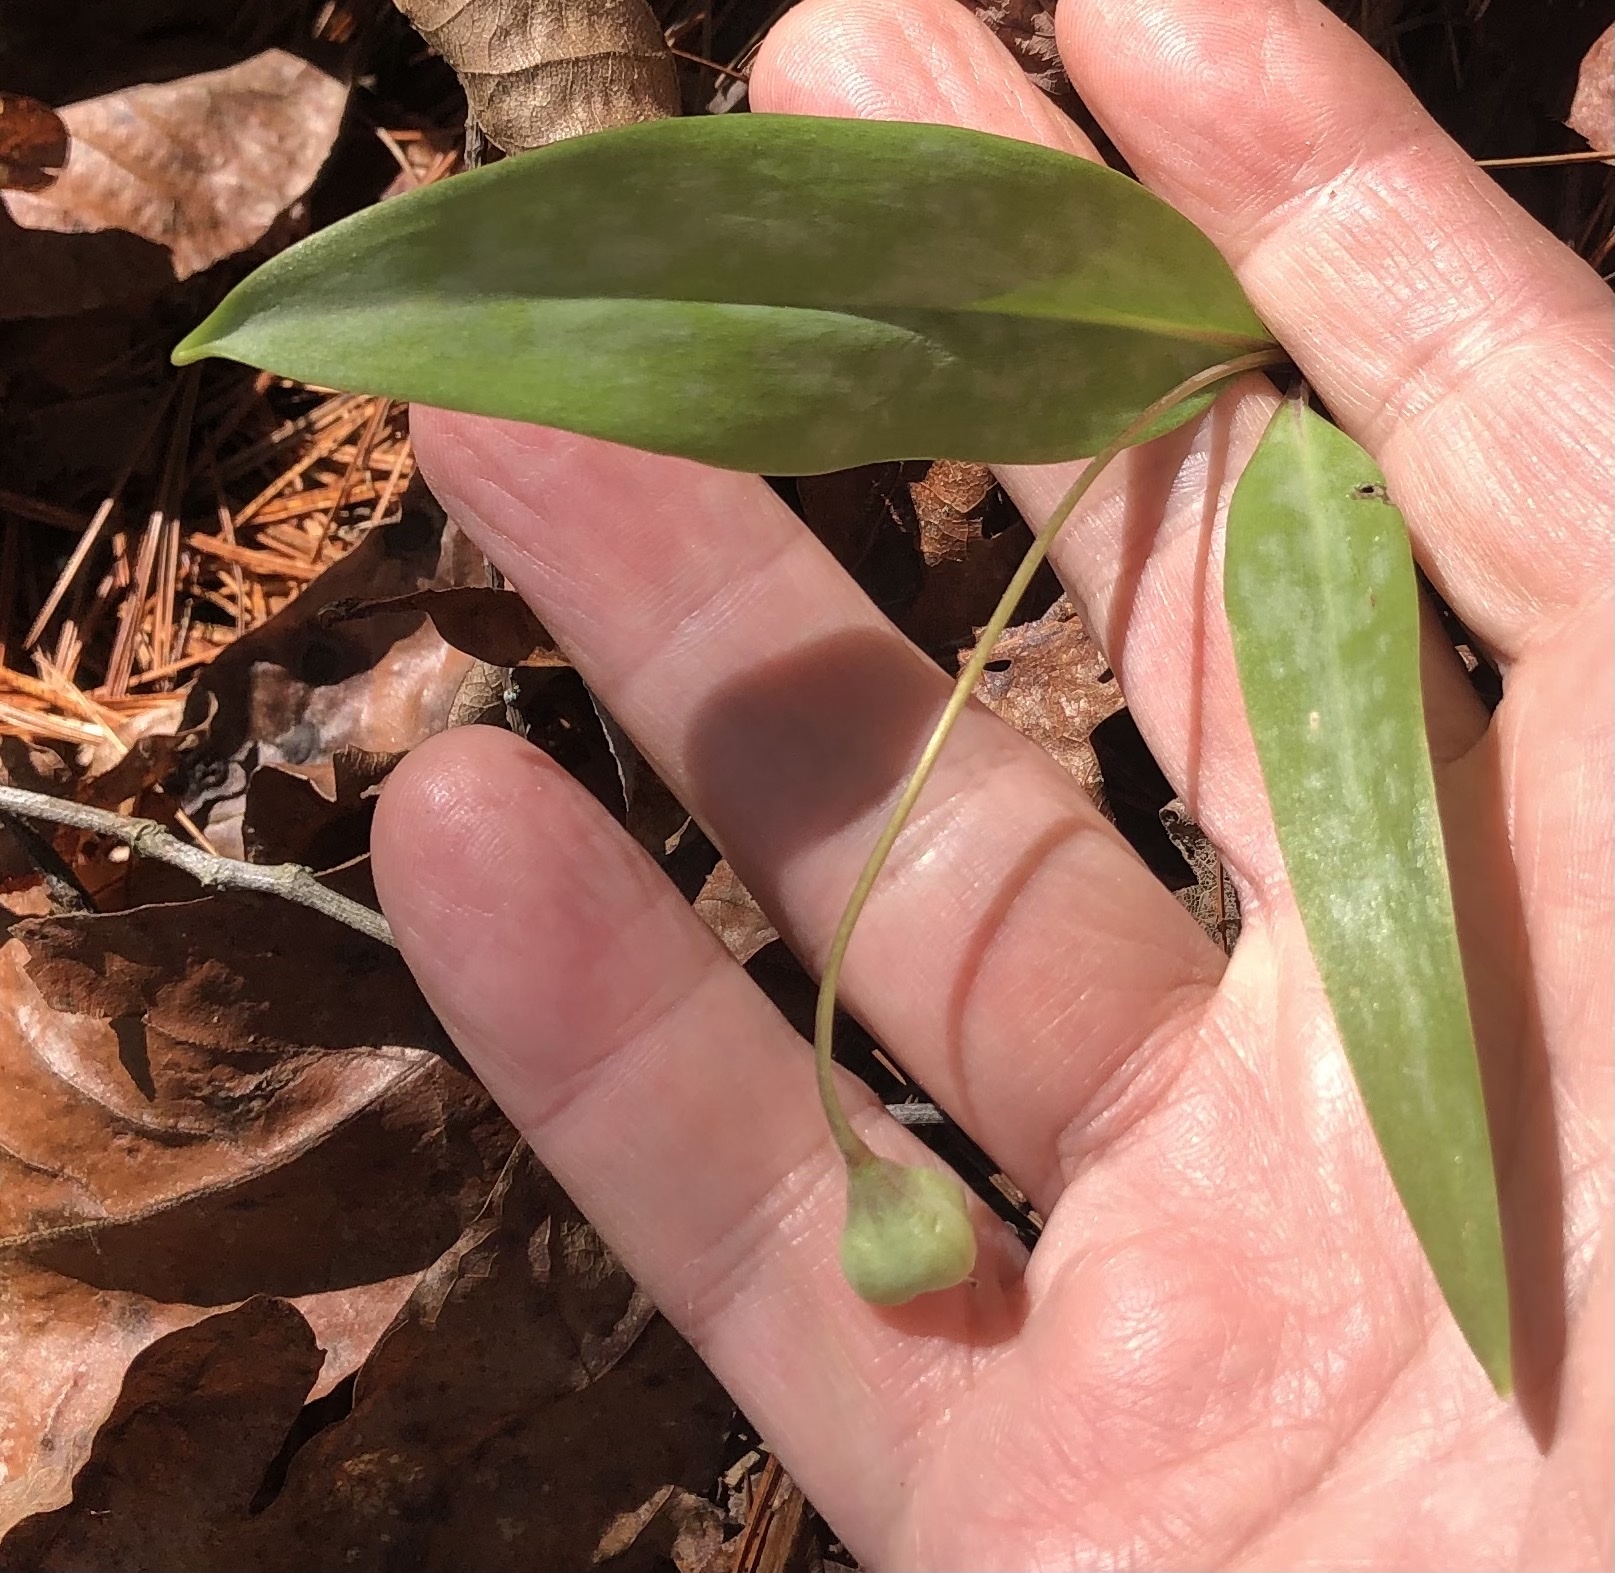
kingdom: Plantae
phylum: Tracheophyta
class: Liliopsida
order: Liliales
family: Liliaceae
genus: Erythronium
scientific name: Erythronium umbilicatum
